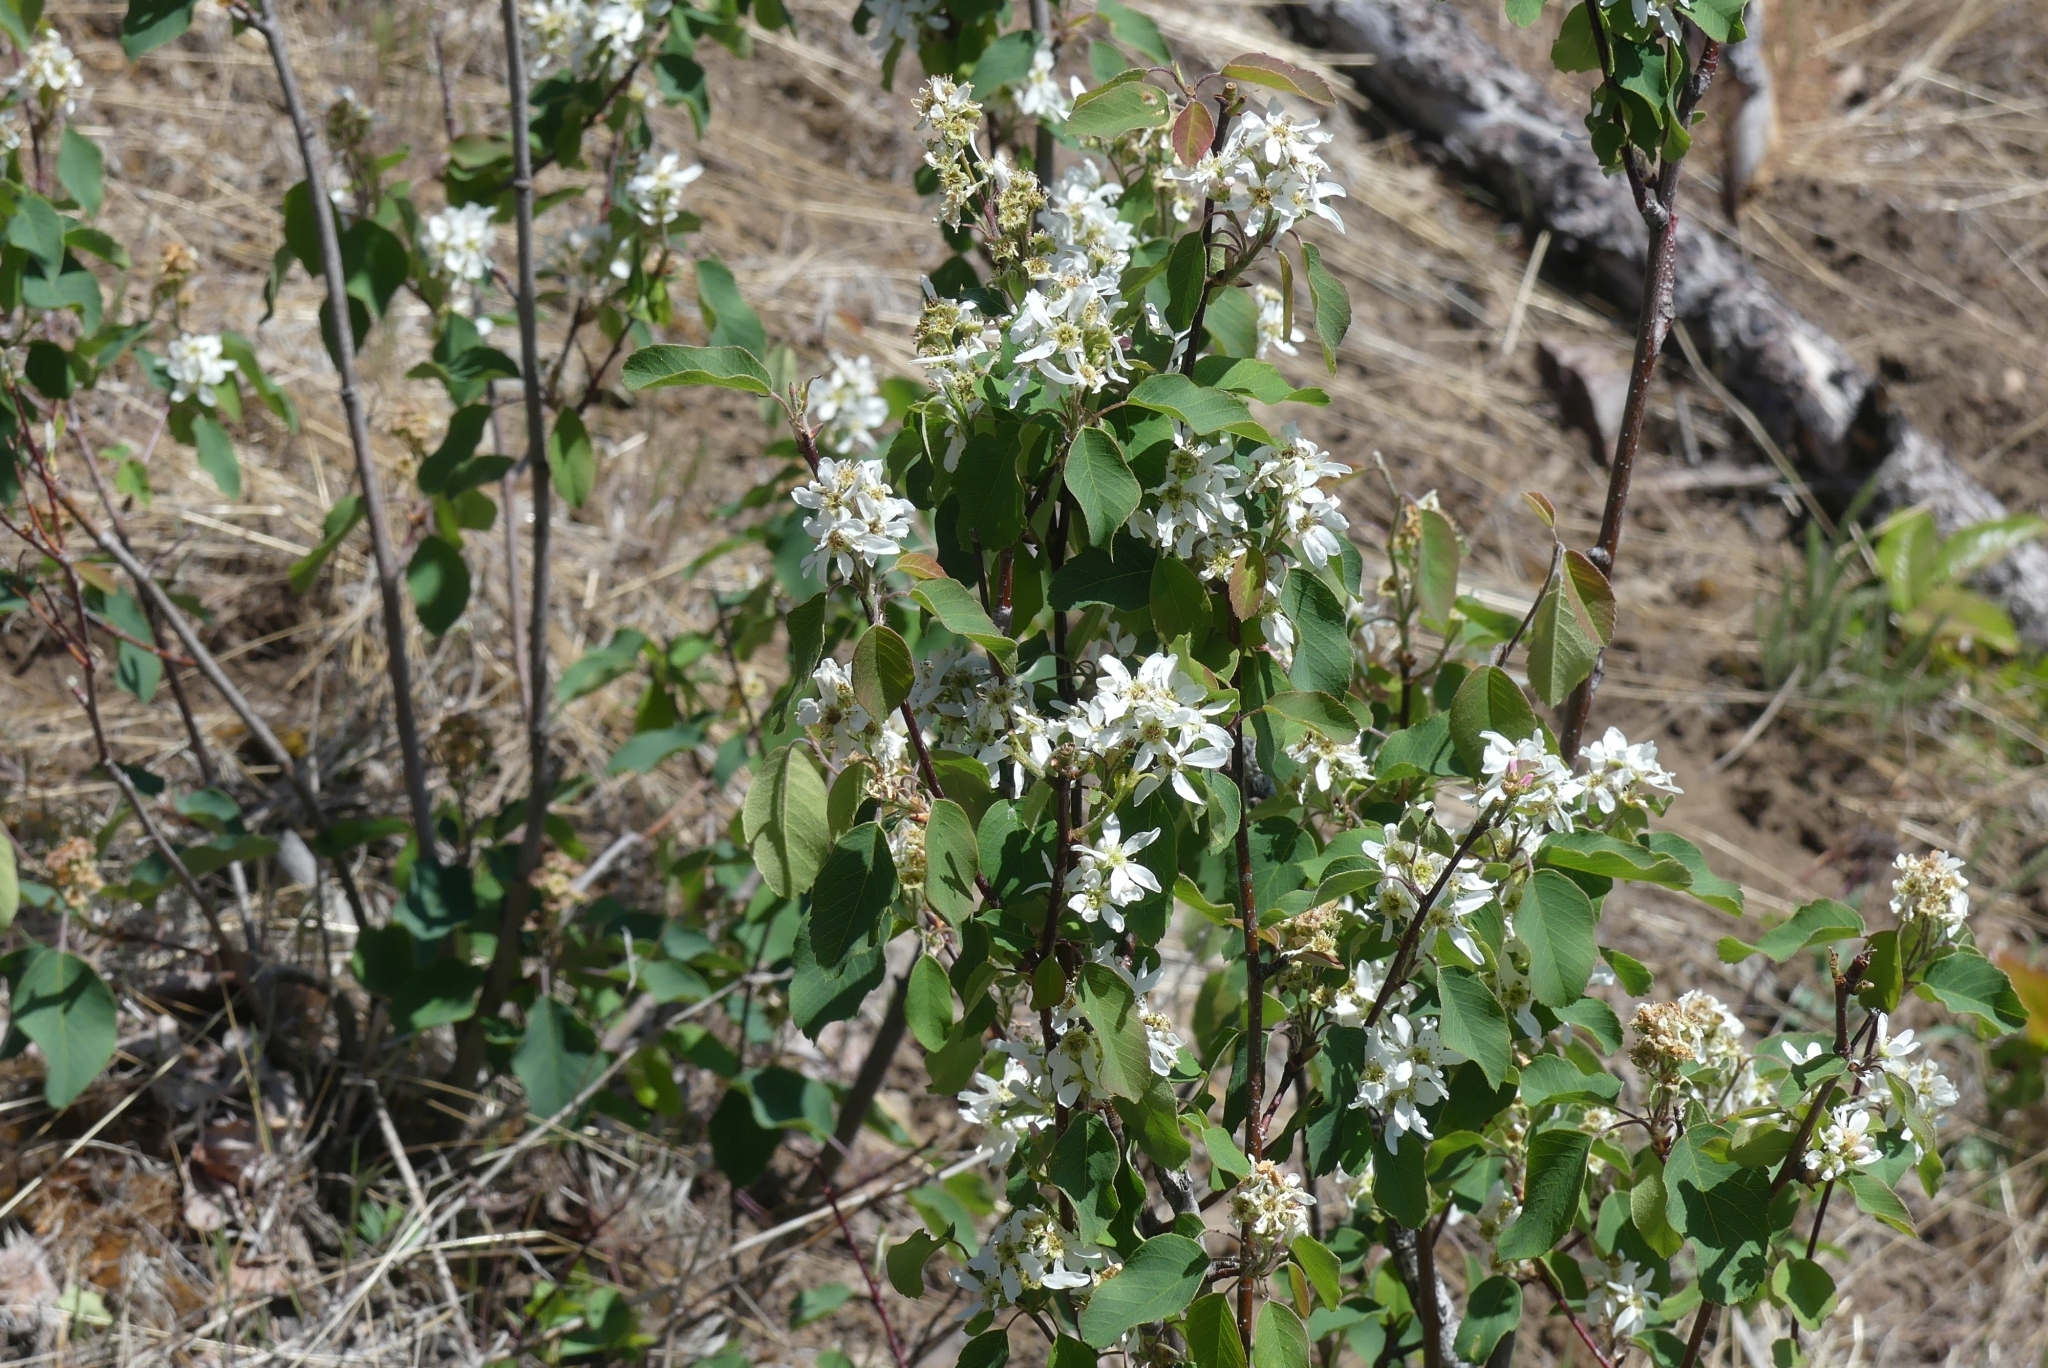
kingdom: Plantae
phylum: Tracheophyta
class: Magnoliopsida
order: Rosales
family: Rosaceae
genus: Amelanchier
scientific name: Amelanchier alnifolia
